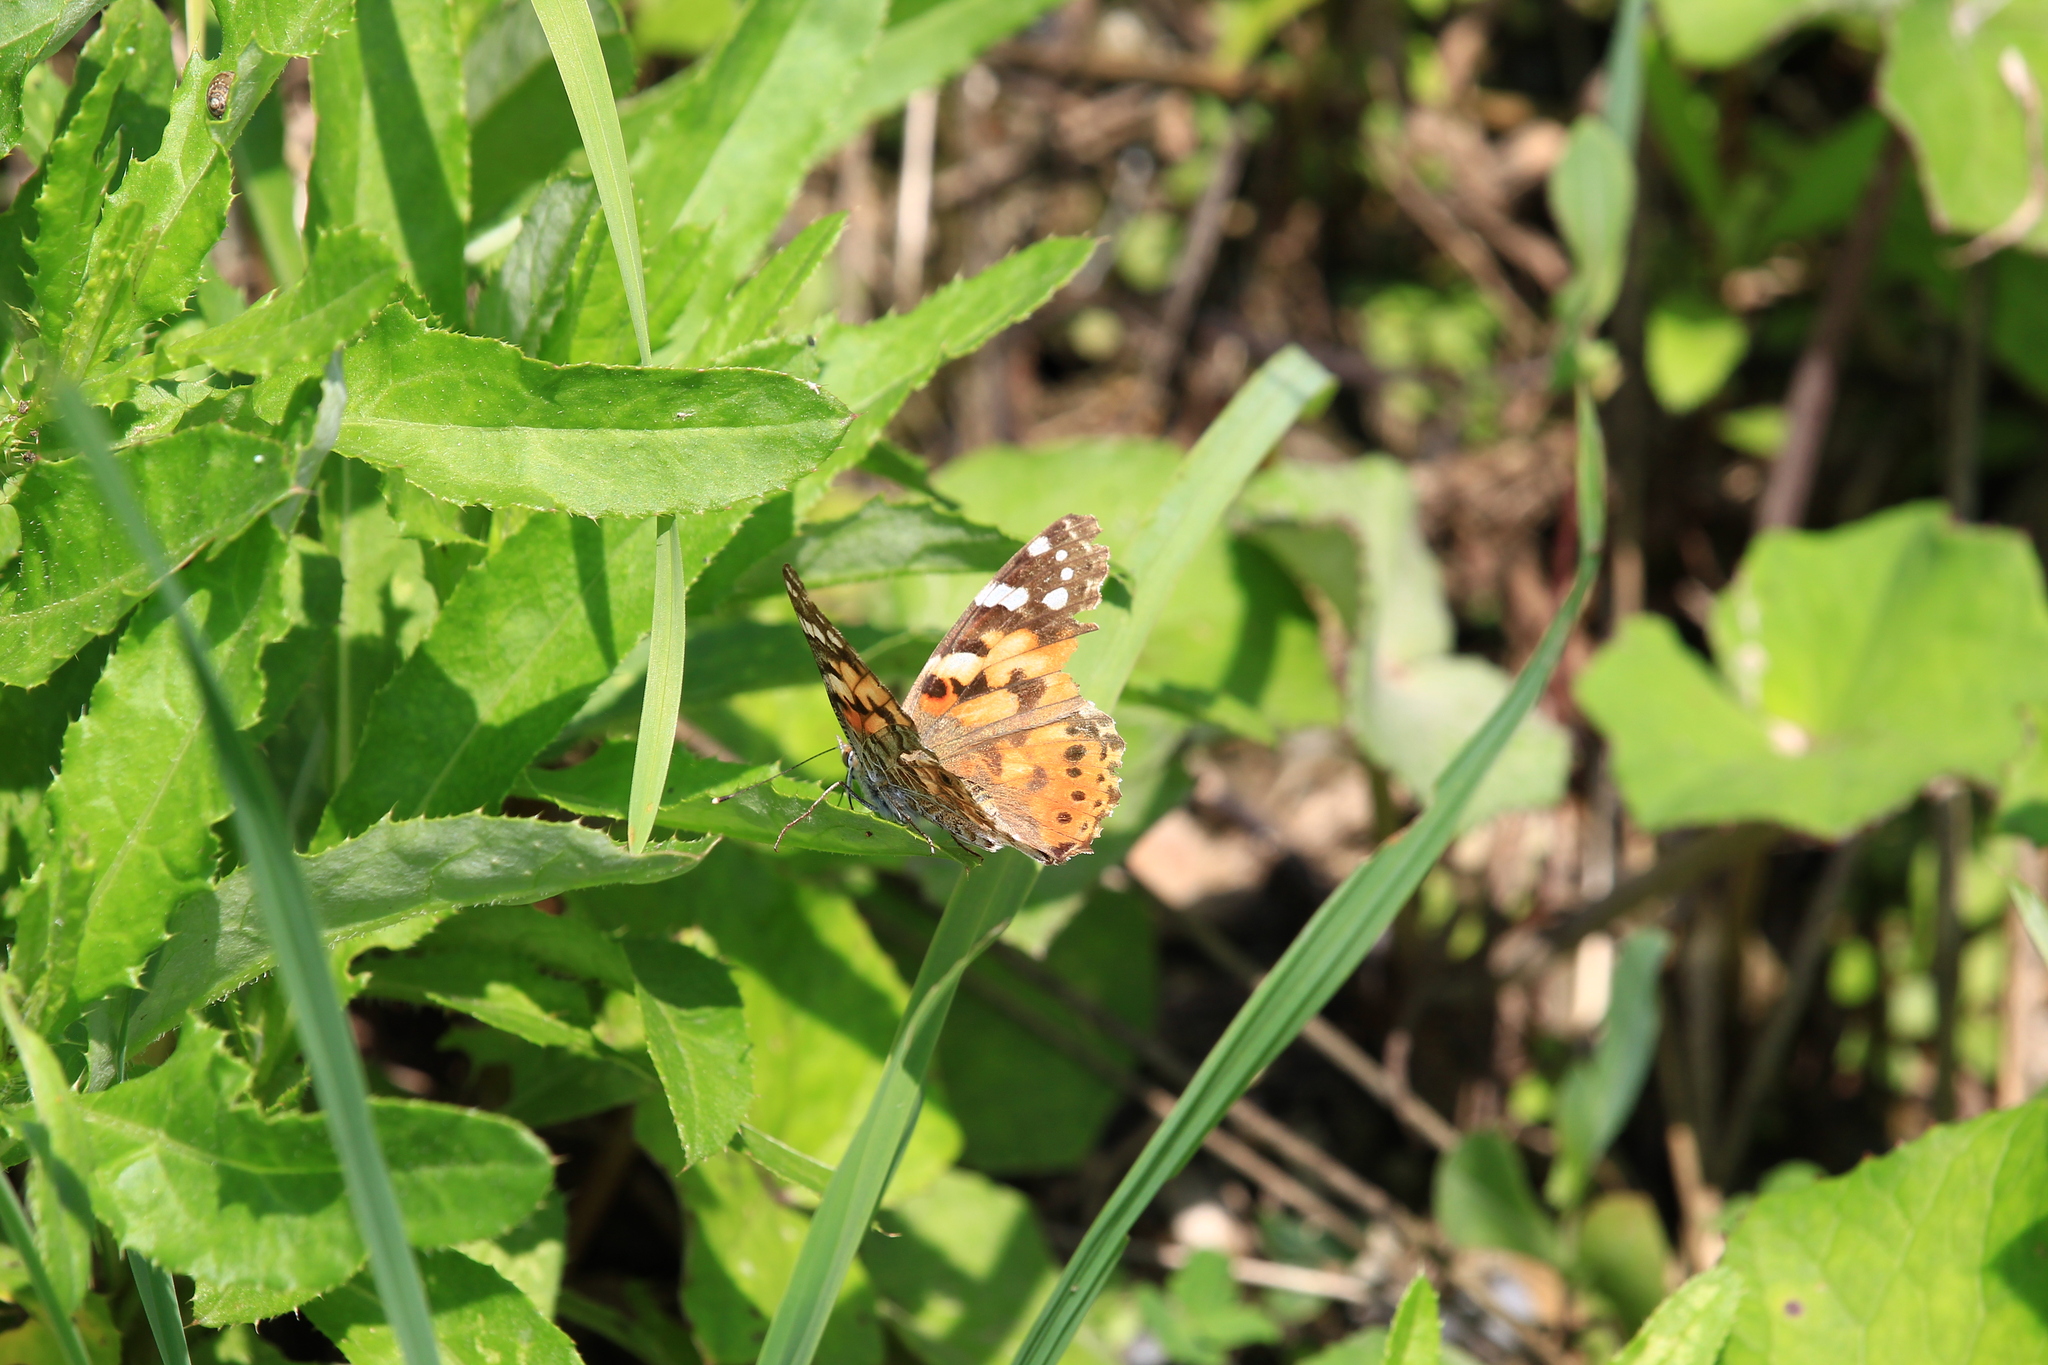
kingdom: Animalia
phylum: Arthropoda
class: Insecta
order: Lepidoptera
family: Nymphalidae
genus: Vanessa
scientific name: Vanessa cardui
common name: Painted lady
